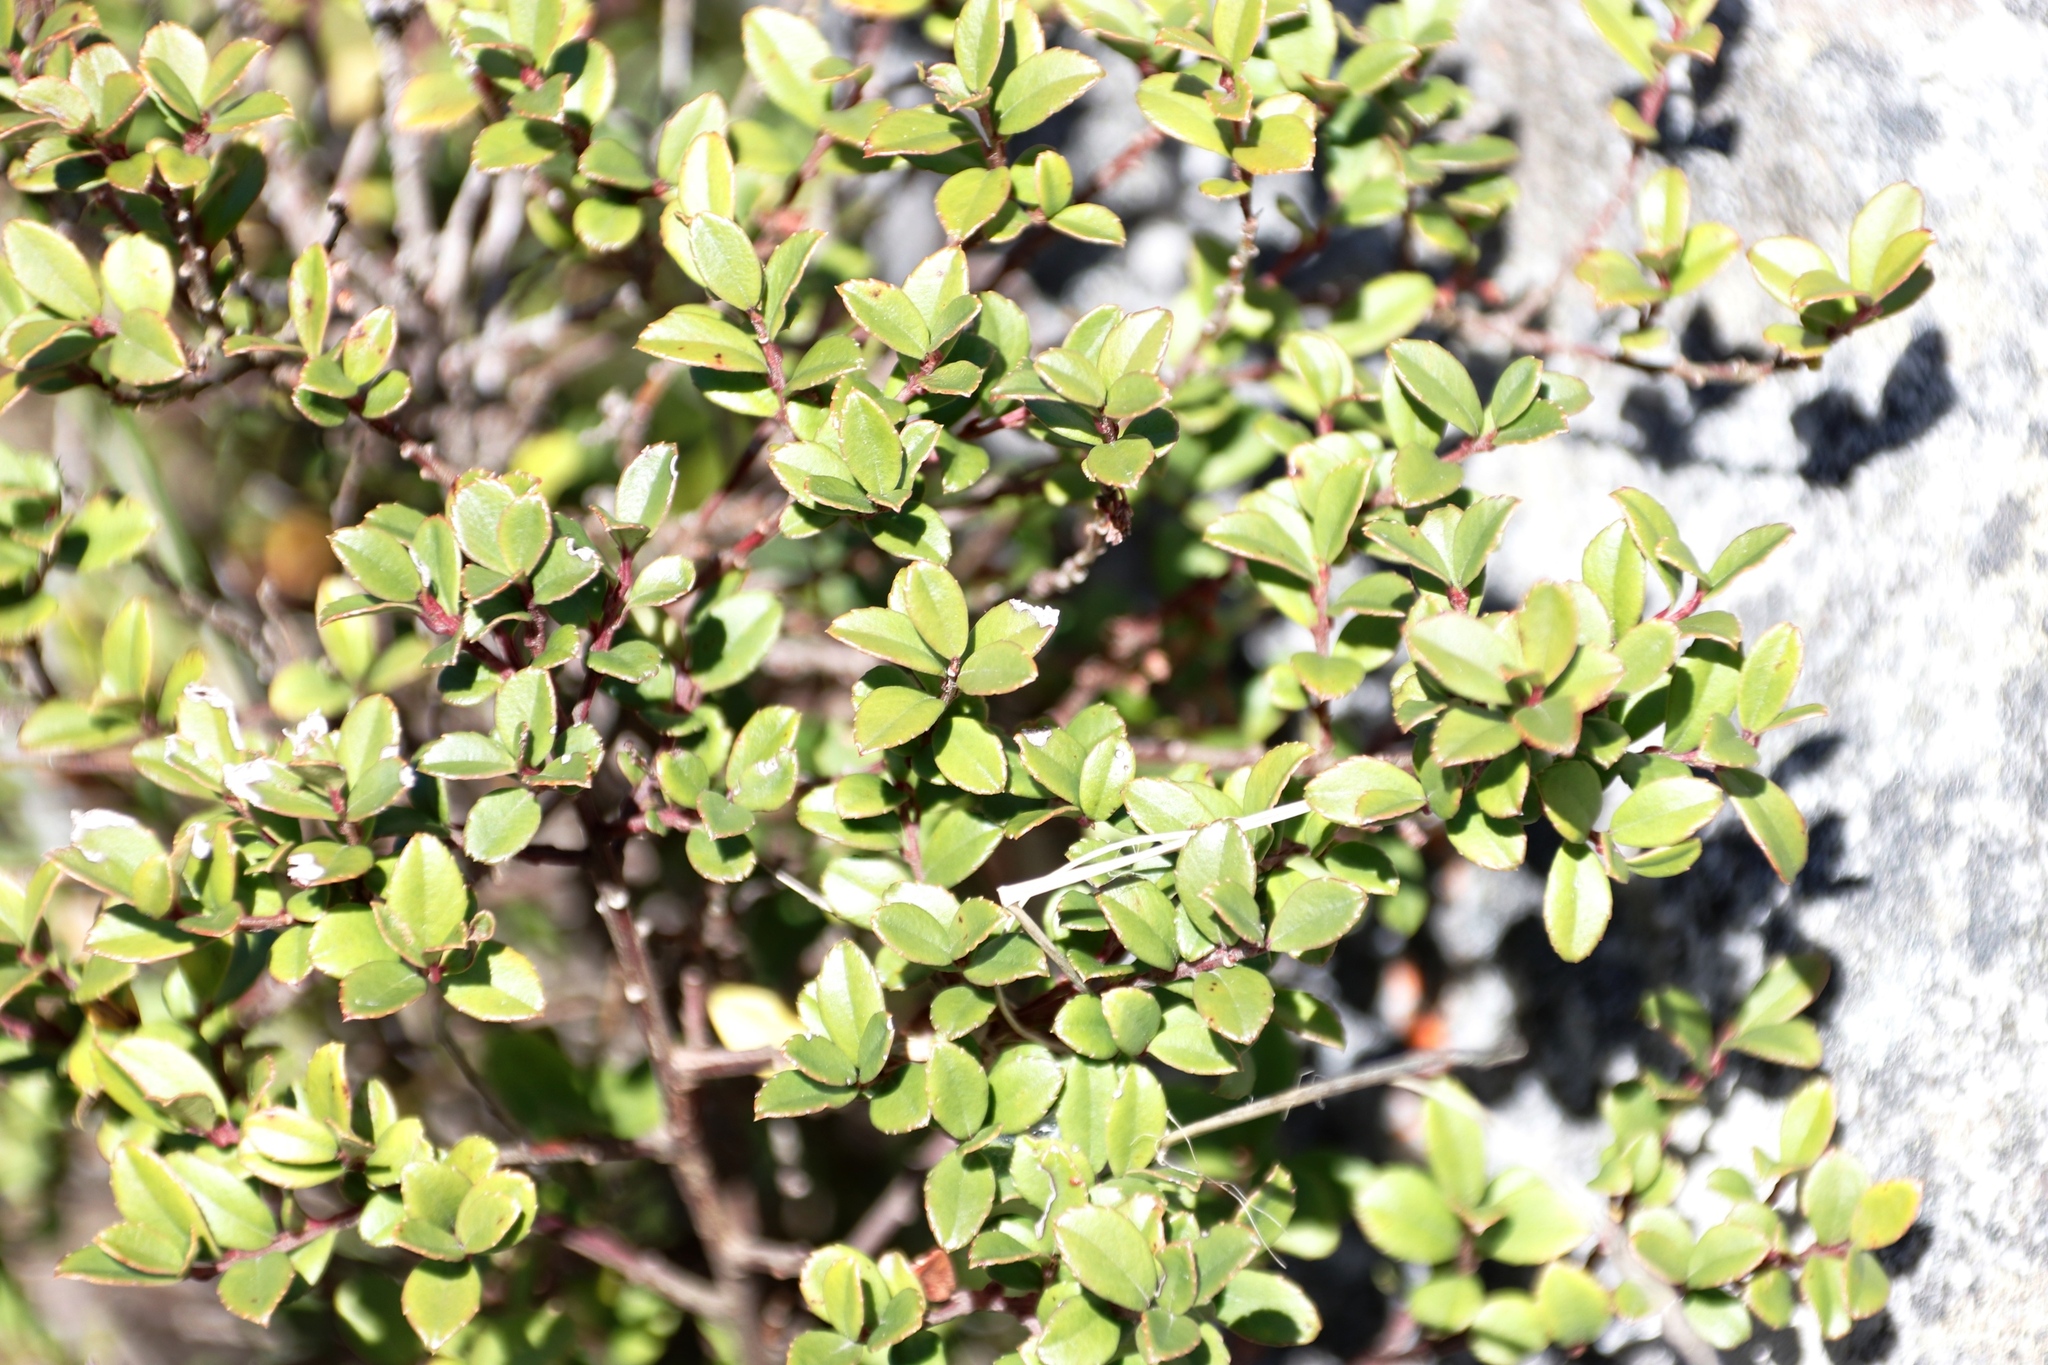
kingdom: Plantae
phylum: Tracheophyta
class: Magnoliopsida
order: Ericales
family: Primulaceae
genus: Myrsine
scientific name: Myrsine africana
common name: African-boxwood
